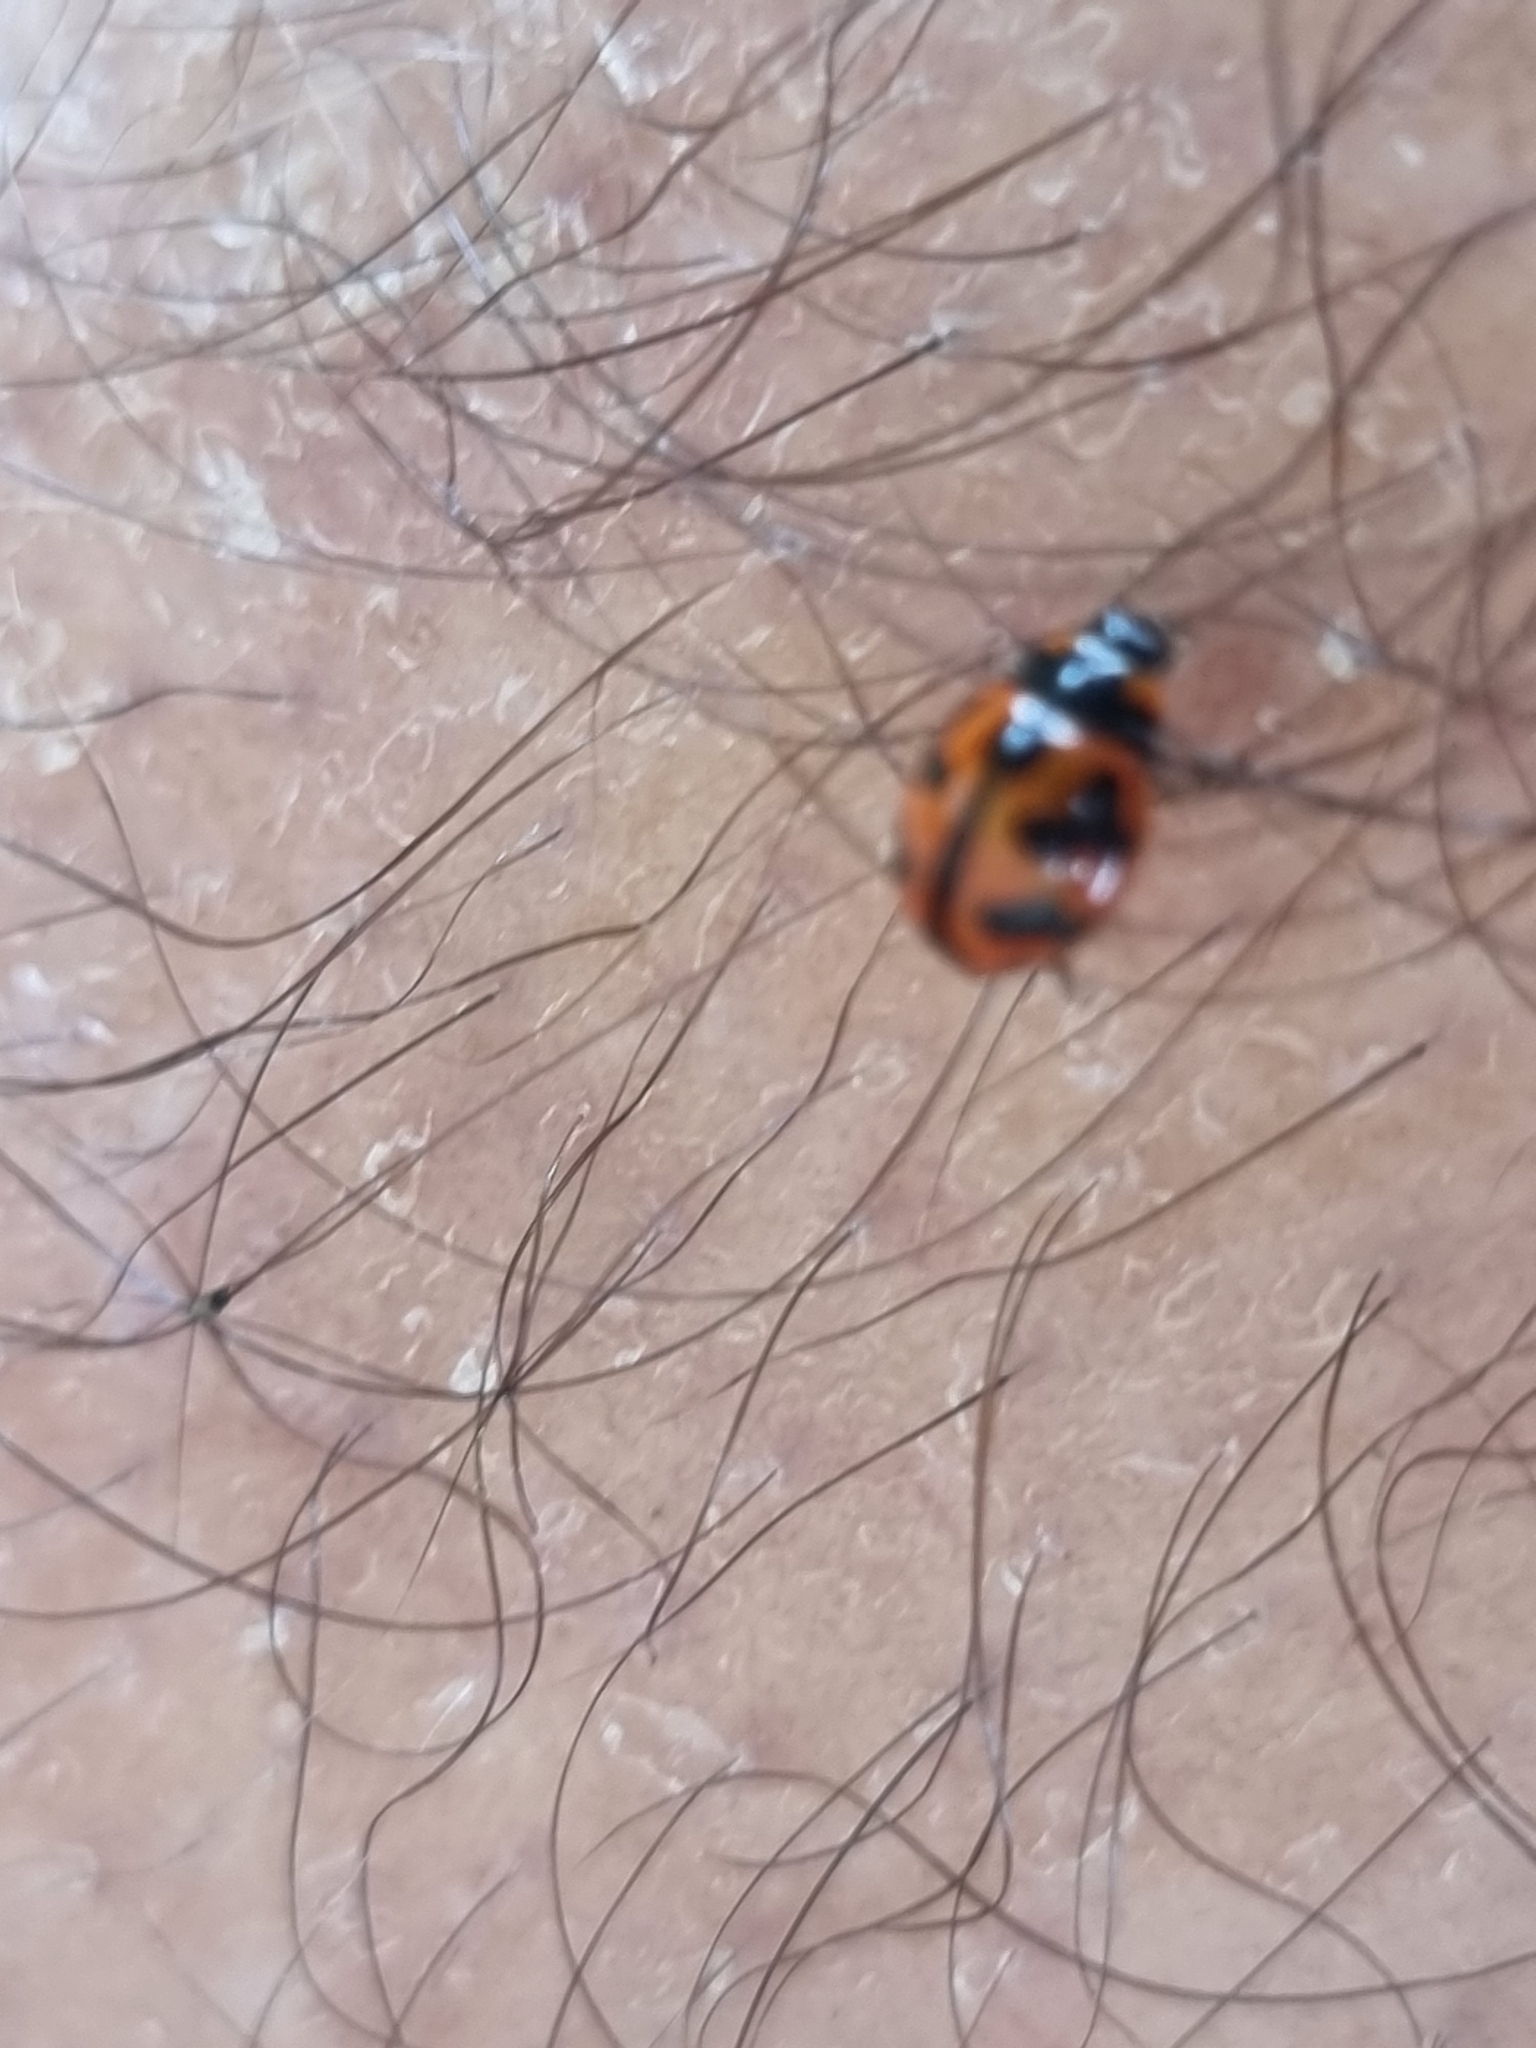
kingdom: Animalia
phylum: Arthropoda
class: Insecta
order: Coleoptera
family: Coccinellidae
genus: Coccinella
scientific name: Coccinella transversalis
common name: Transverse lady beetle
